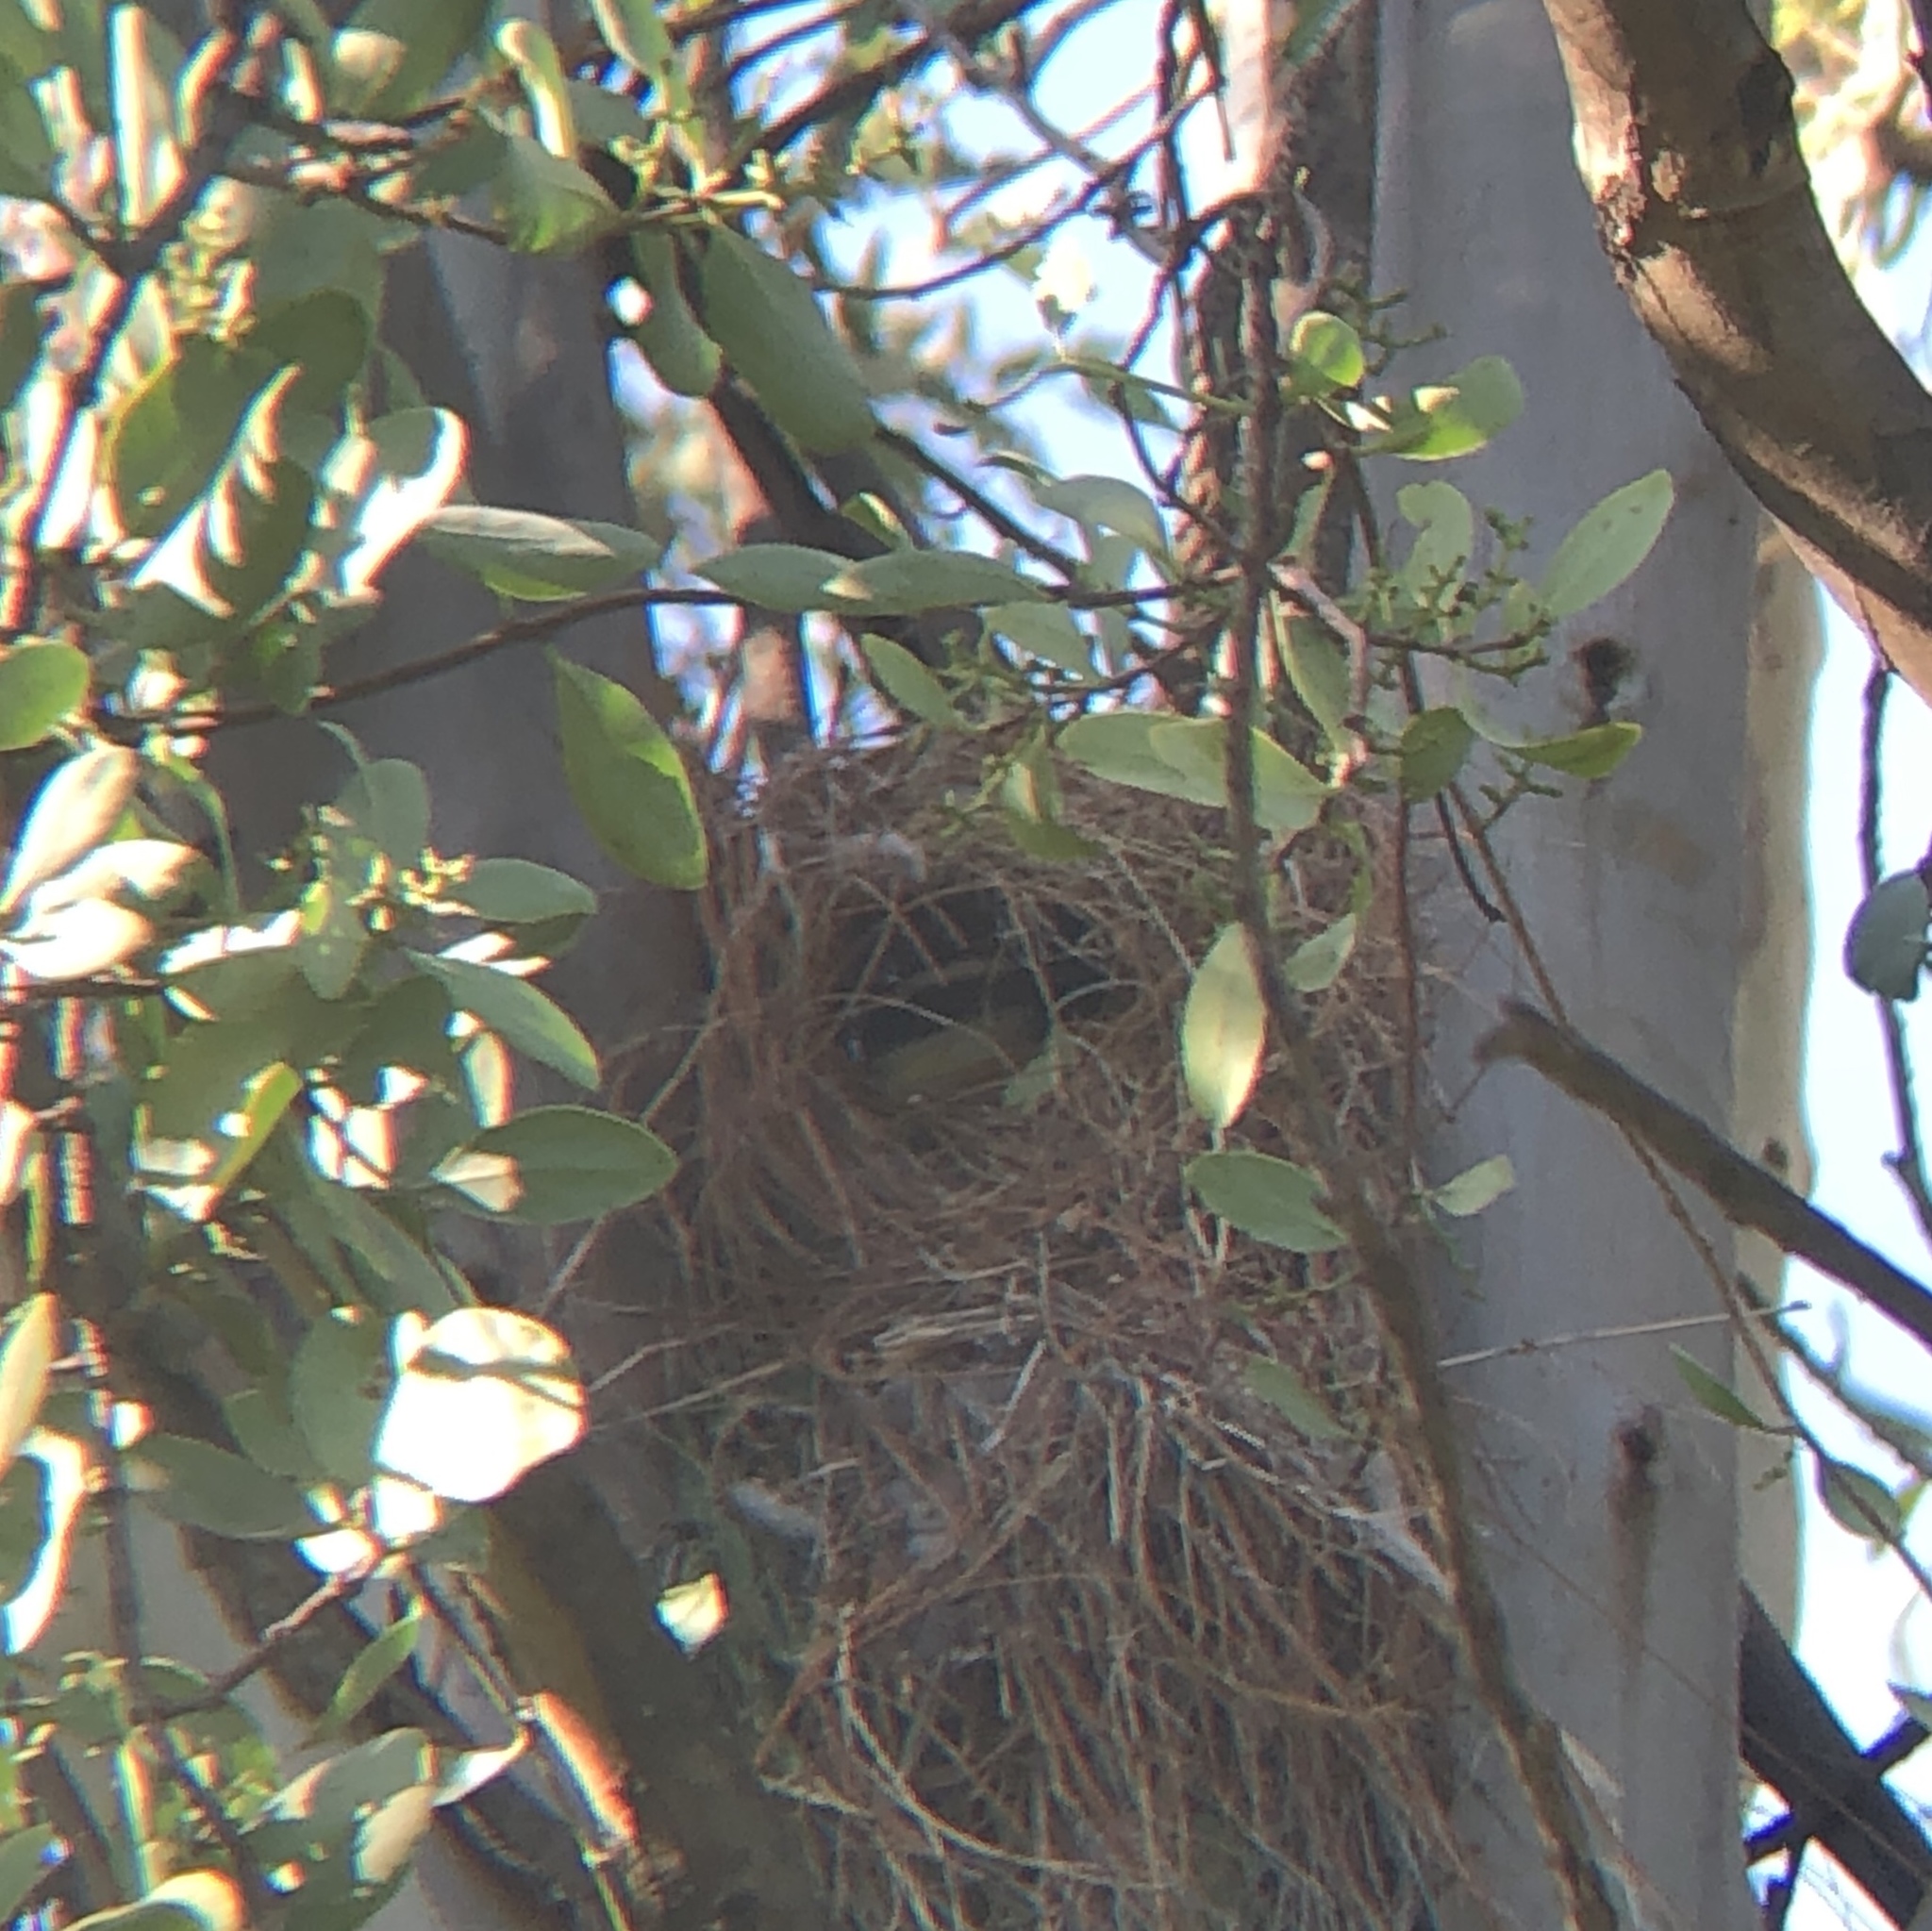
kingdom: Animalia
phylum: Chordata
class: Aves
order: Passeriformes
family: Tyrannidae
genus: Pitangus
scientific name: Pitangus sulphuratus
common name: Great kiskadee
